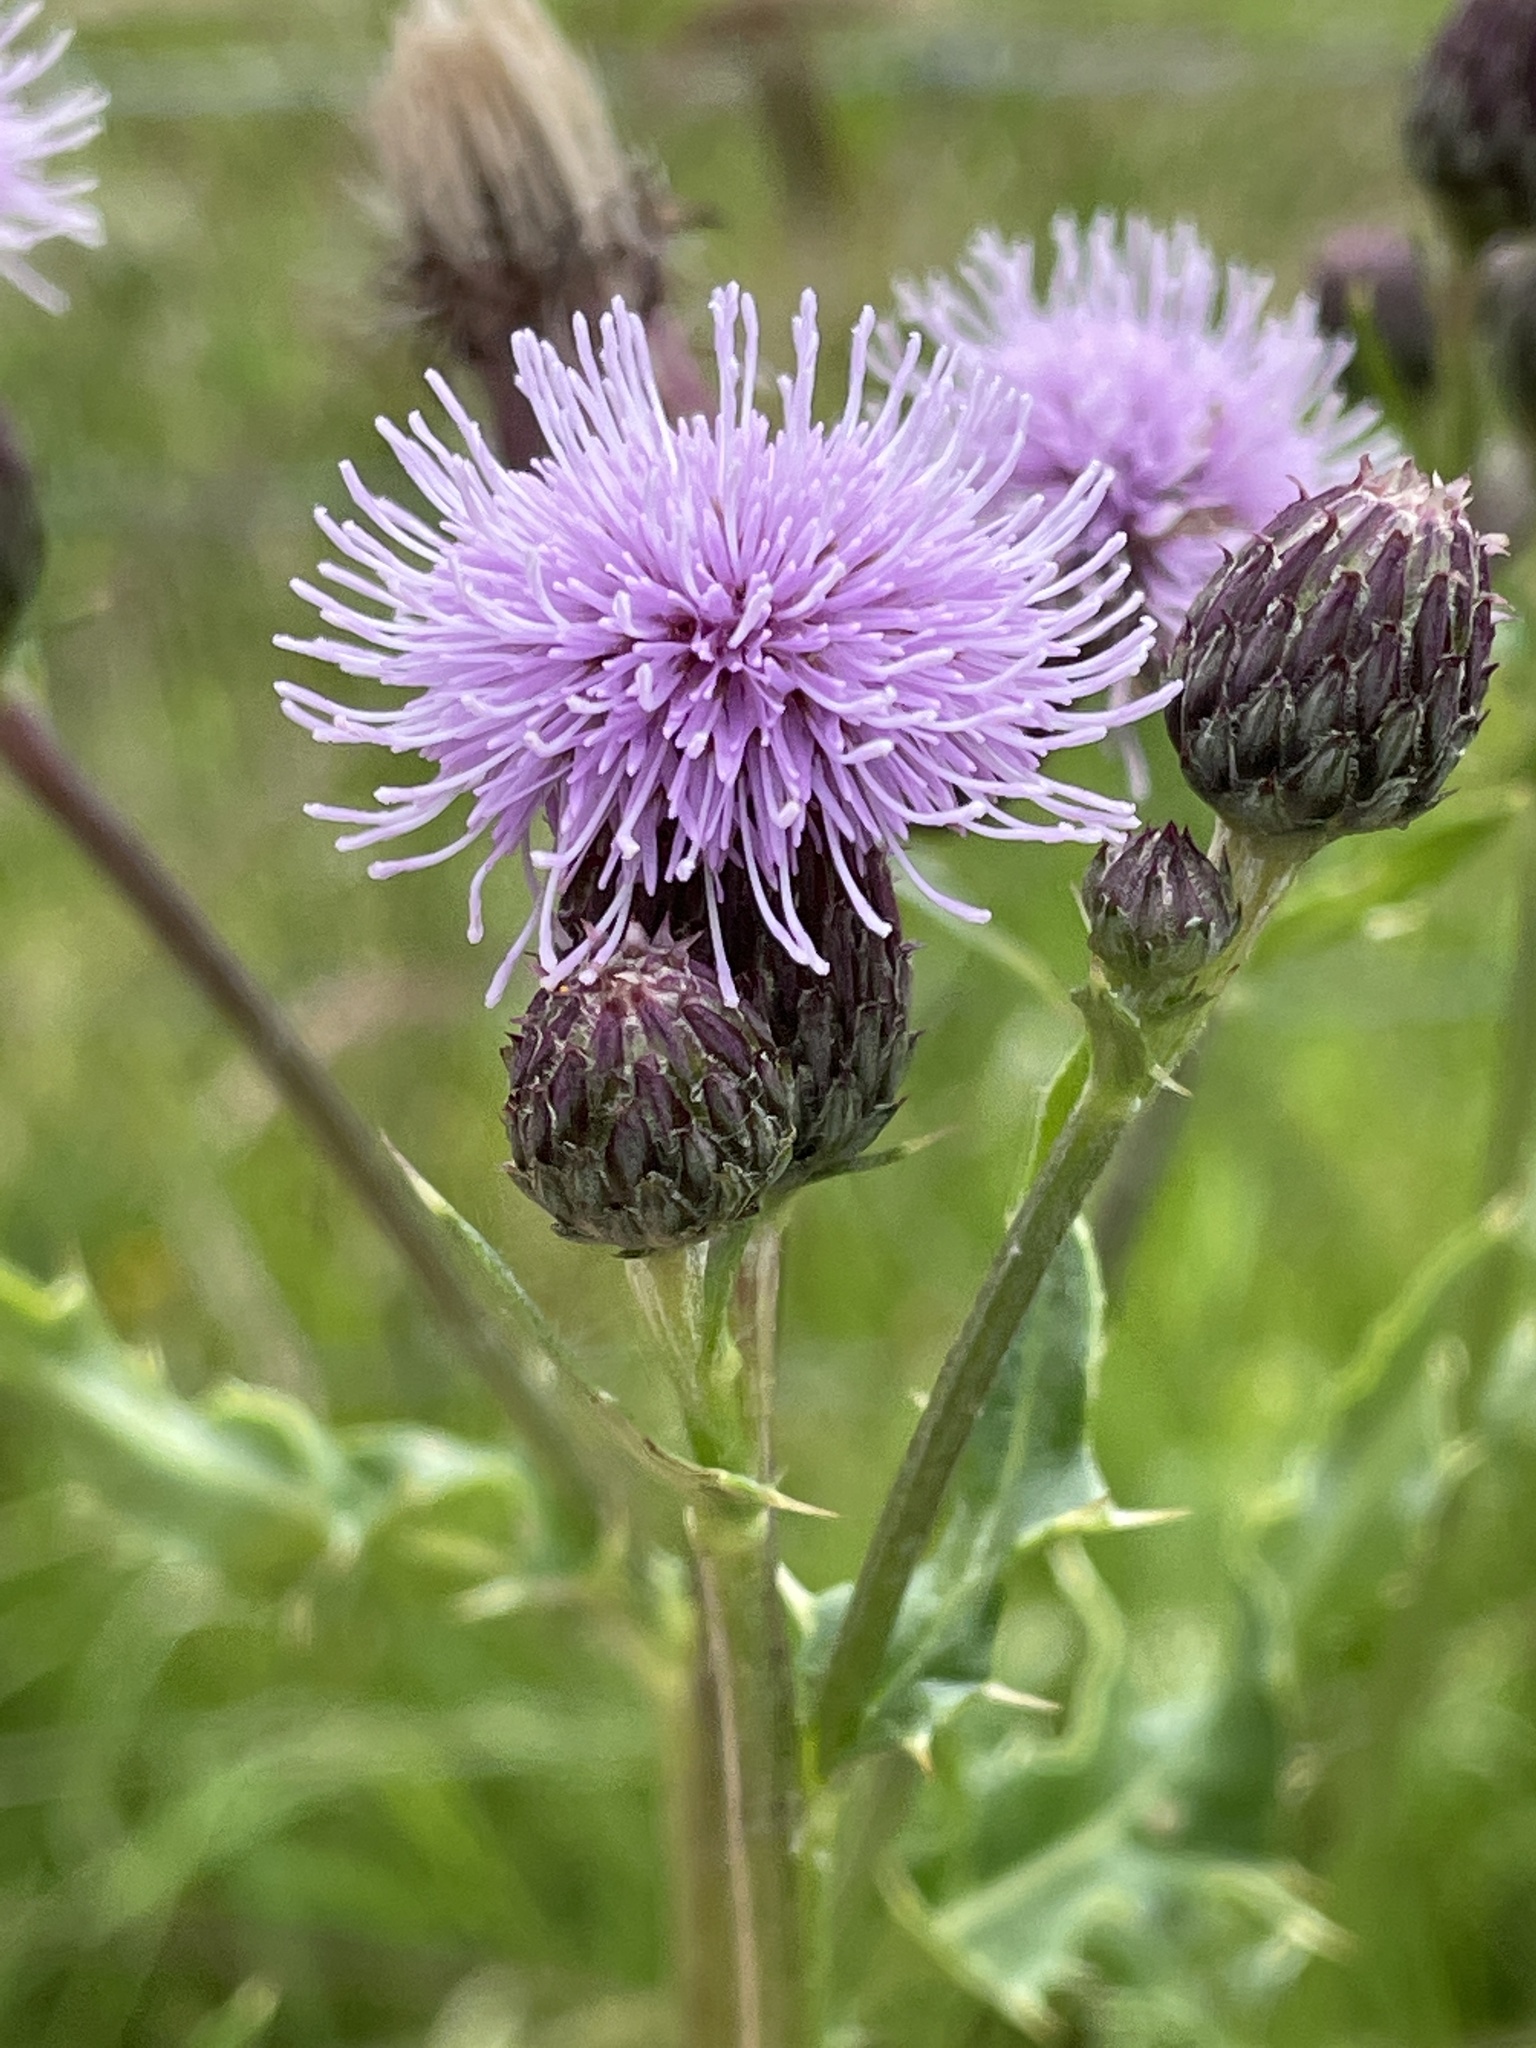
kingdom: Plantae
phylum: Tracheophyta
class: Magnoliopsida
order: Asterales
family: Asteraceae
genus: Cirsium
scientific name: Cirsium arvense
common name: Creeping thistle
